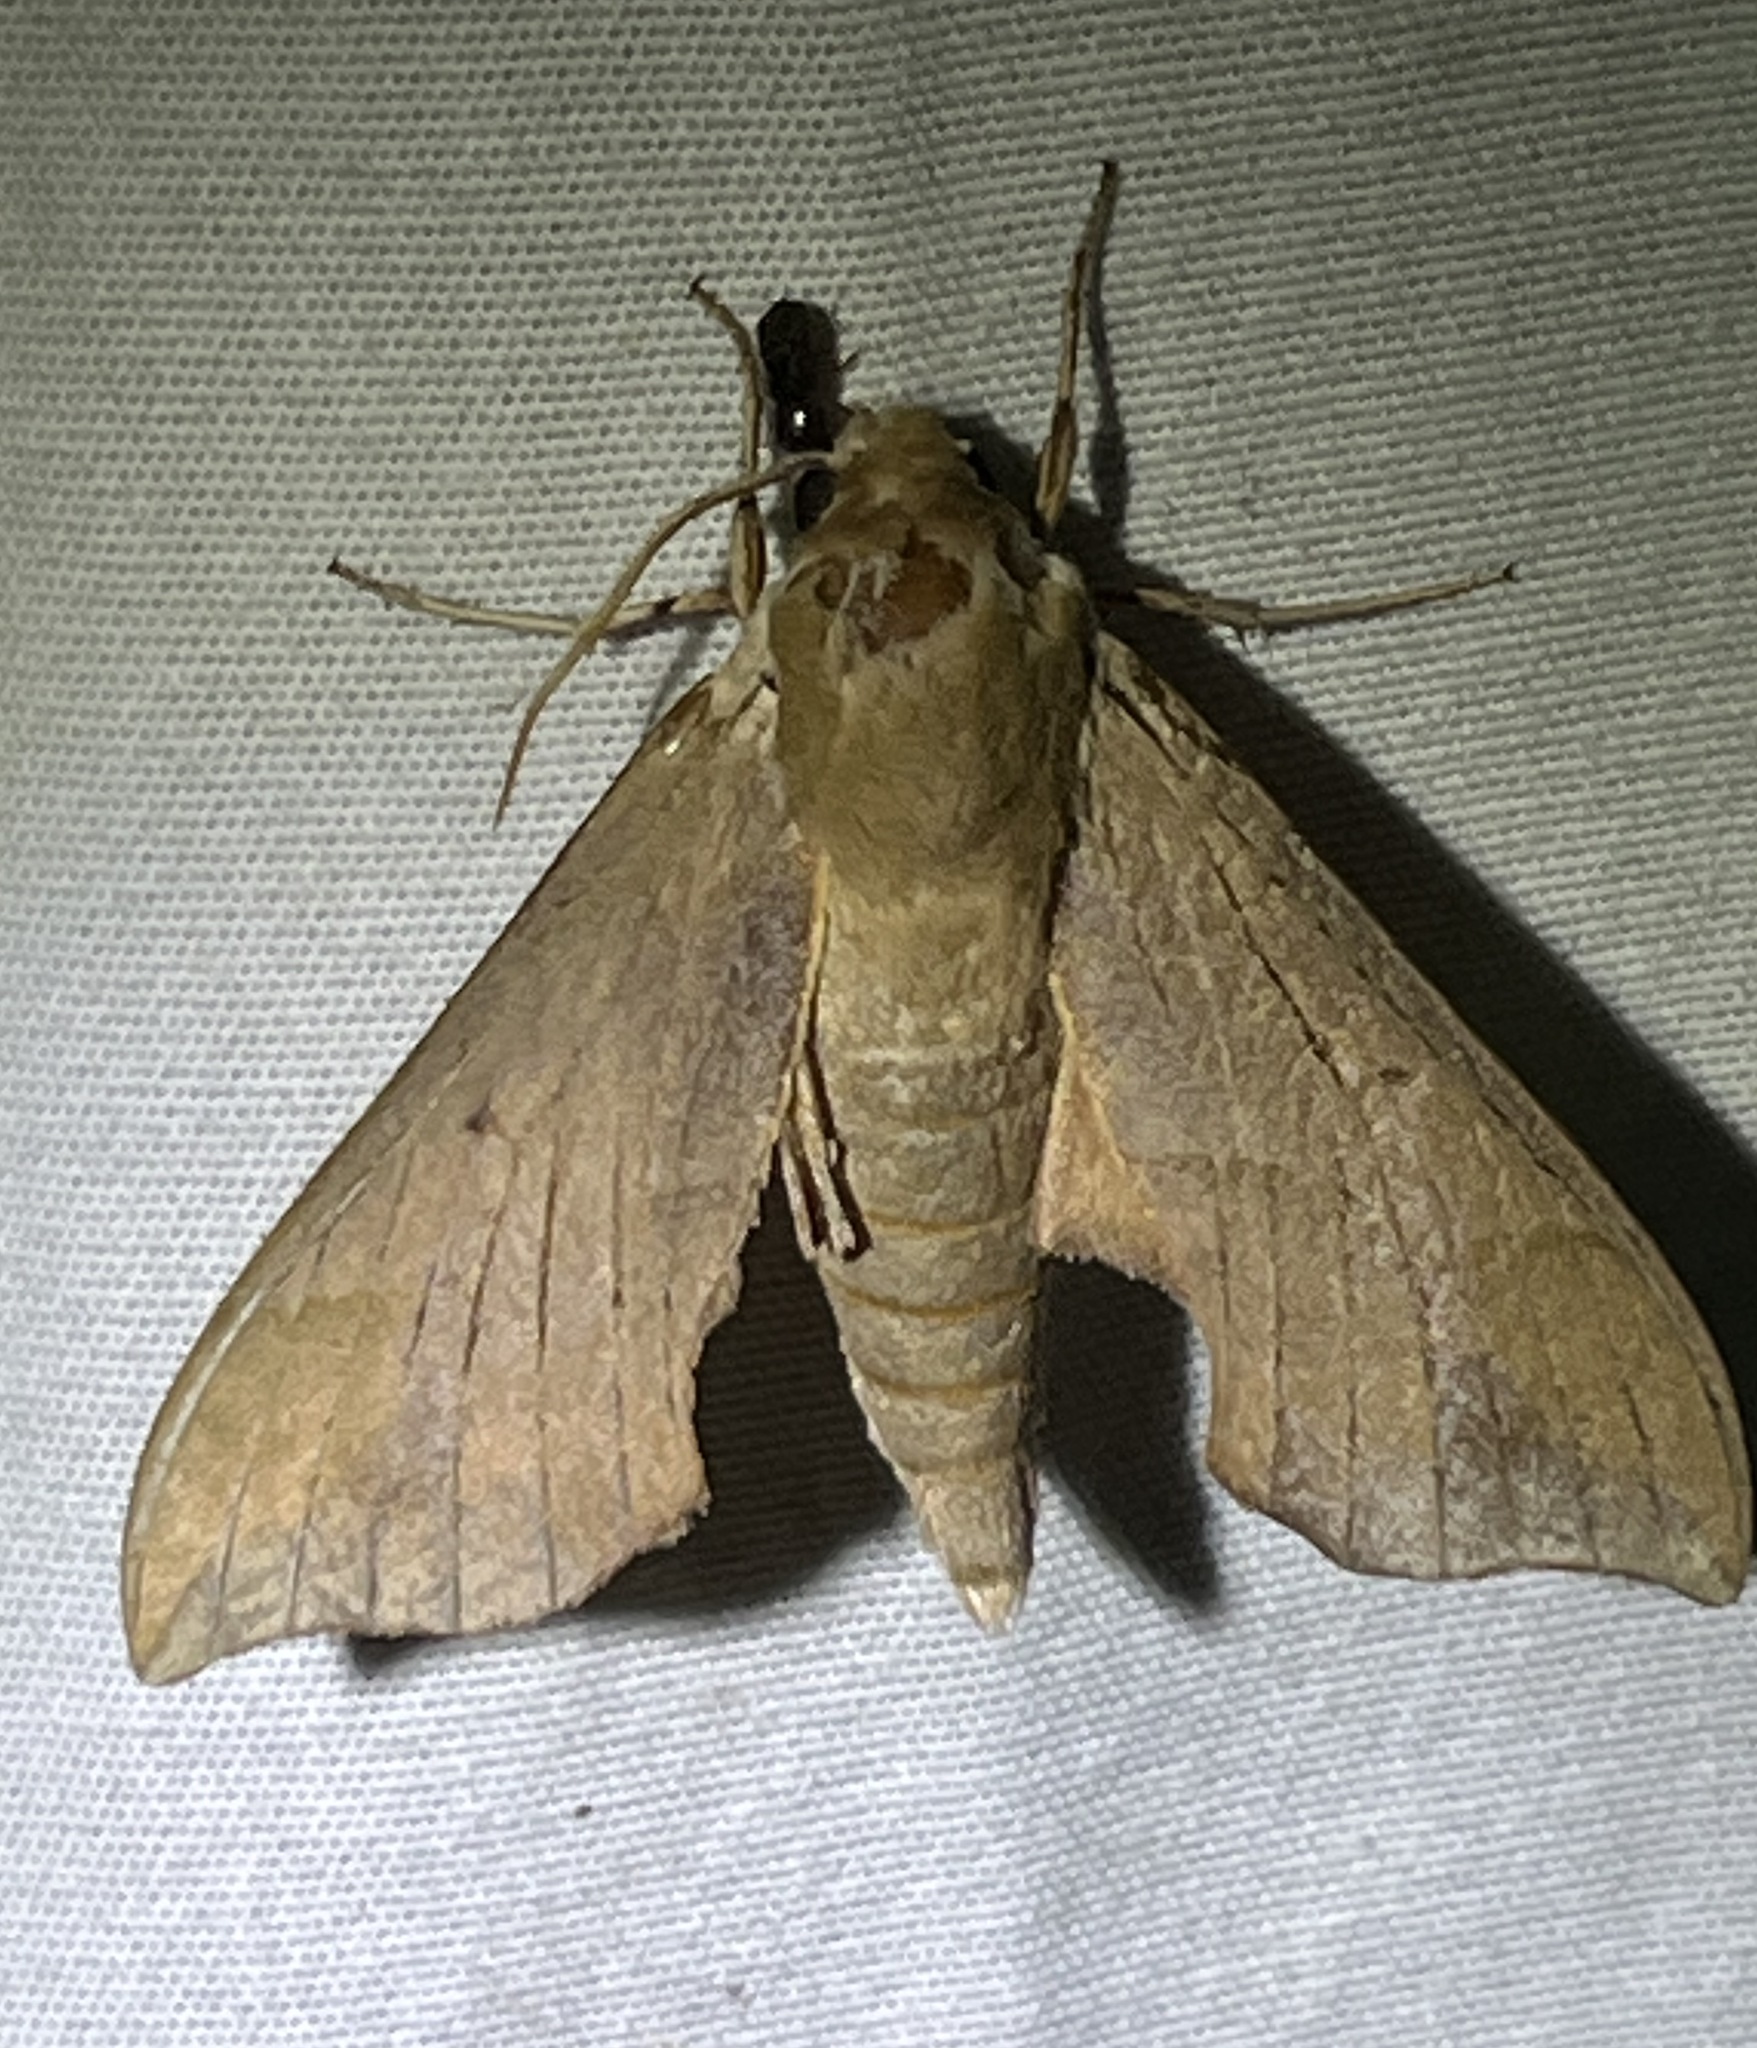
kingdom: Animalia
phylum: Arthropoda
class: Insecta
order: Lepidoptera
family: Sphingidae
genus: Darapsa
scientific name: Darapsa myron
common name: Hog sphinx
